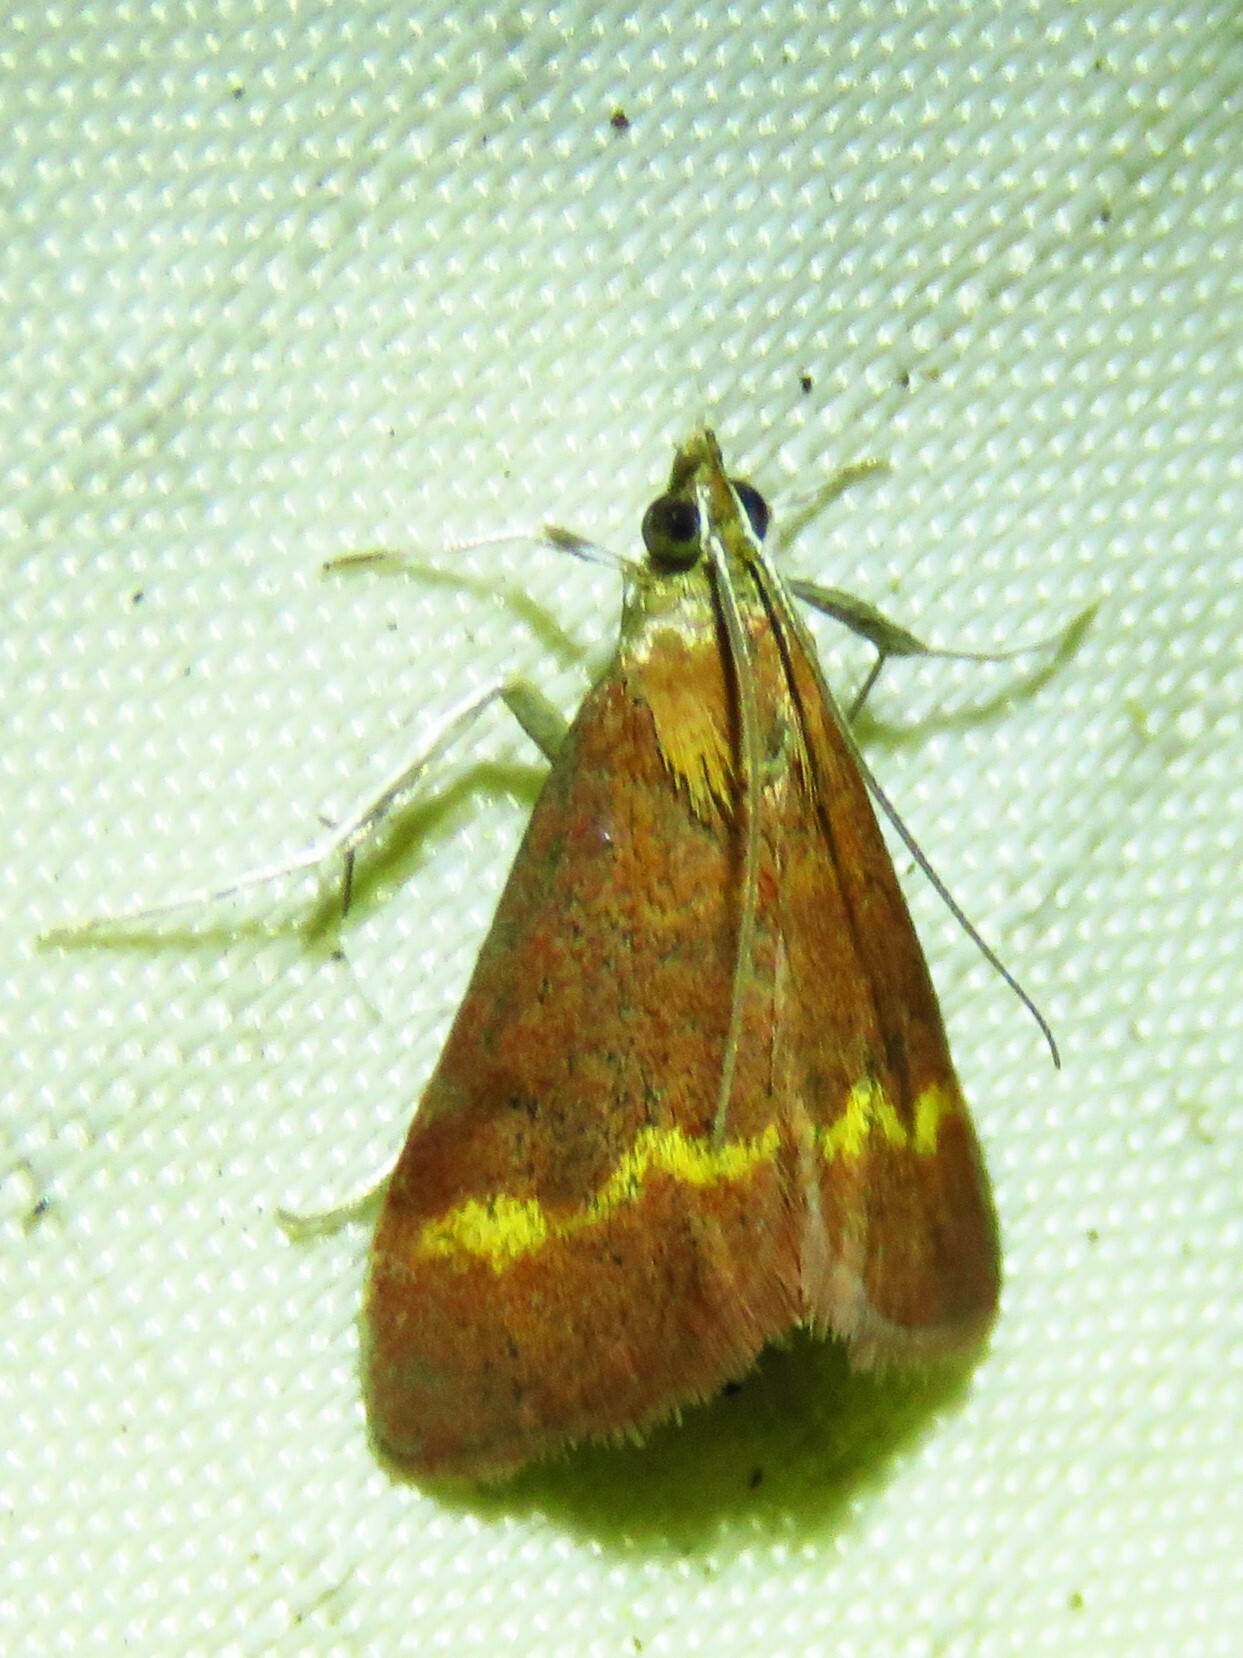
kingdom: Animalia
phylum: Arthropoda
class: Insecta
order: Lepidoptera
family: Crambidae
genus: Pyrausta
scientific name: Pyrausta pseuderosnealis
